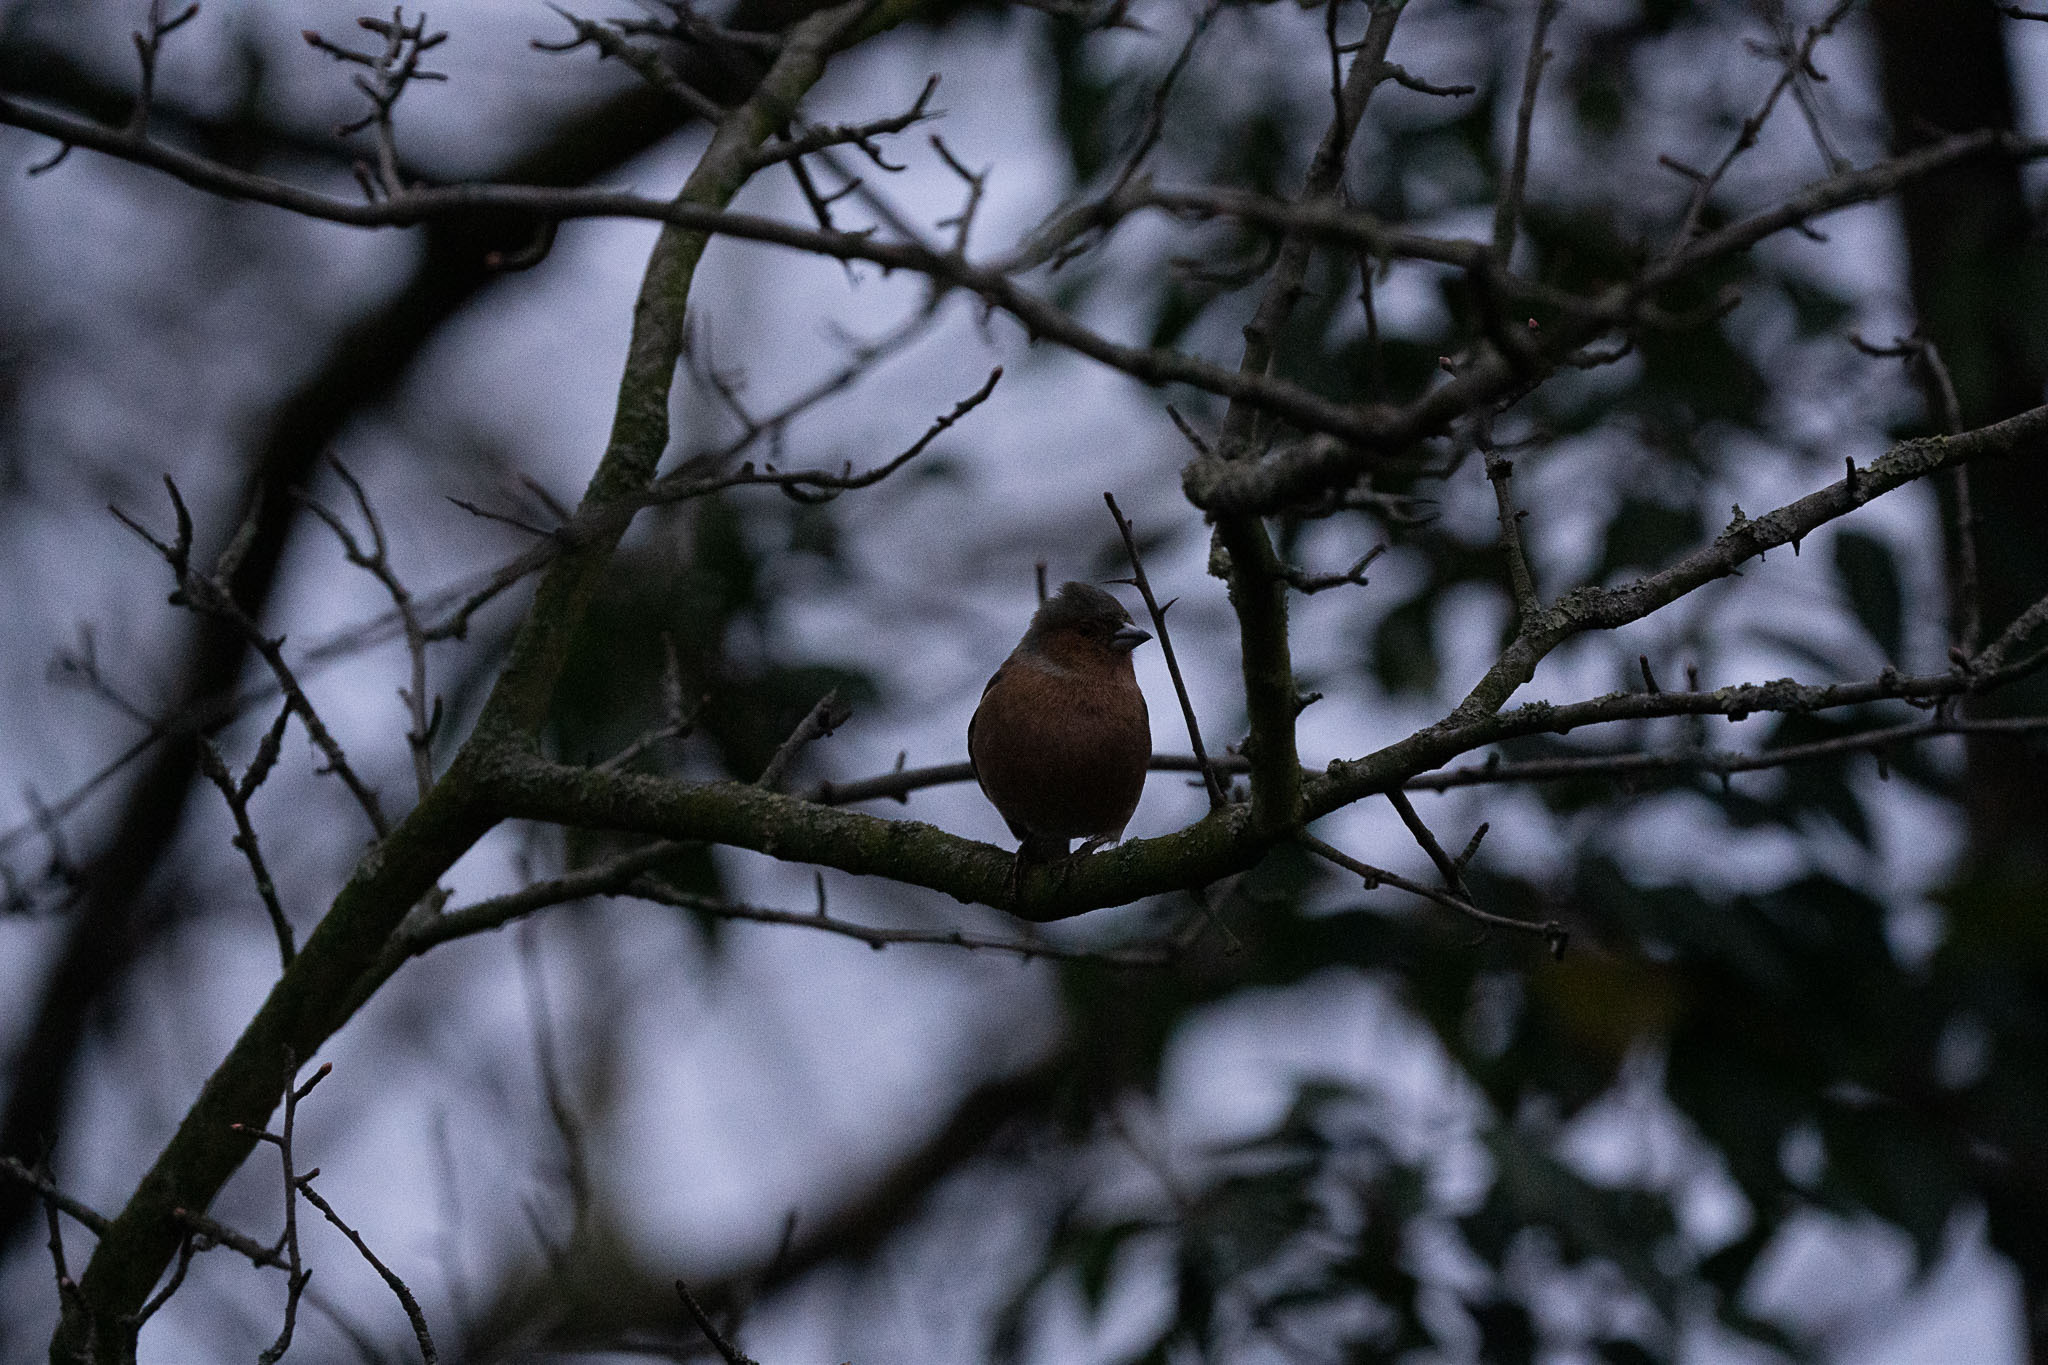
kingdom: Animalia
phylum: Chordata
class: Aves
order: Passeriformes
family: Fringillidae
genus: Fringilla
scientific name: Fringilla coelebs
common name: Common chaffinch
